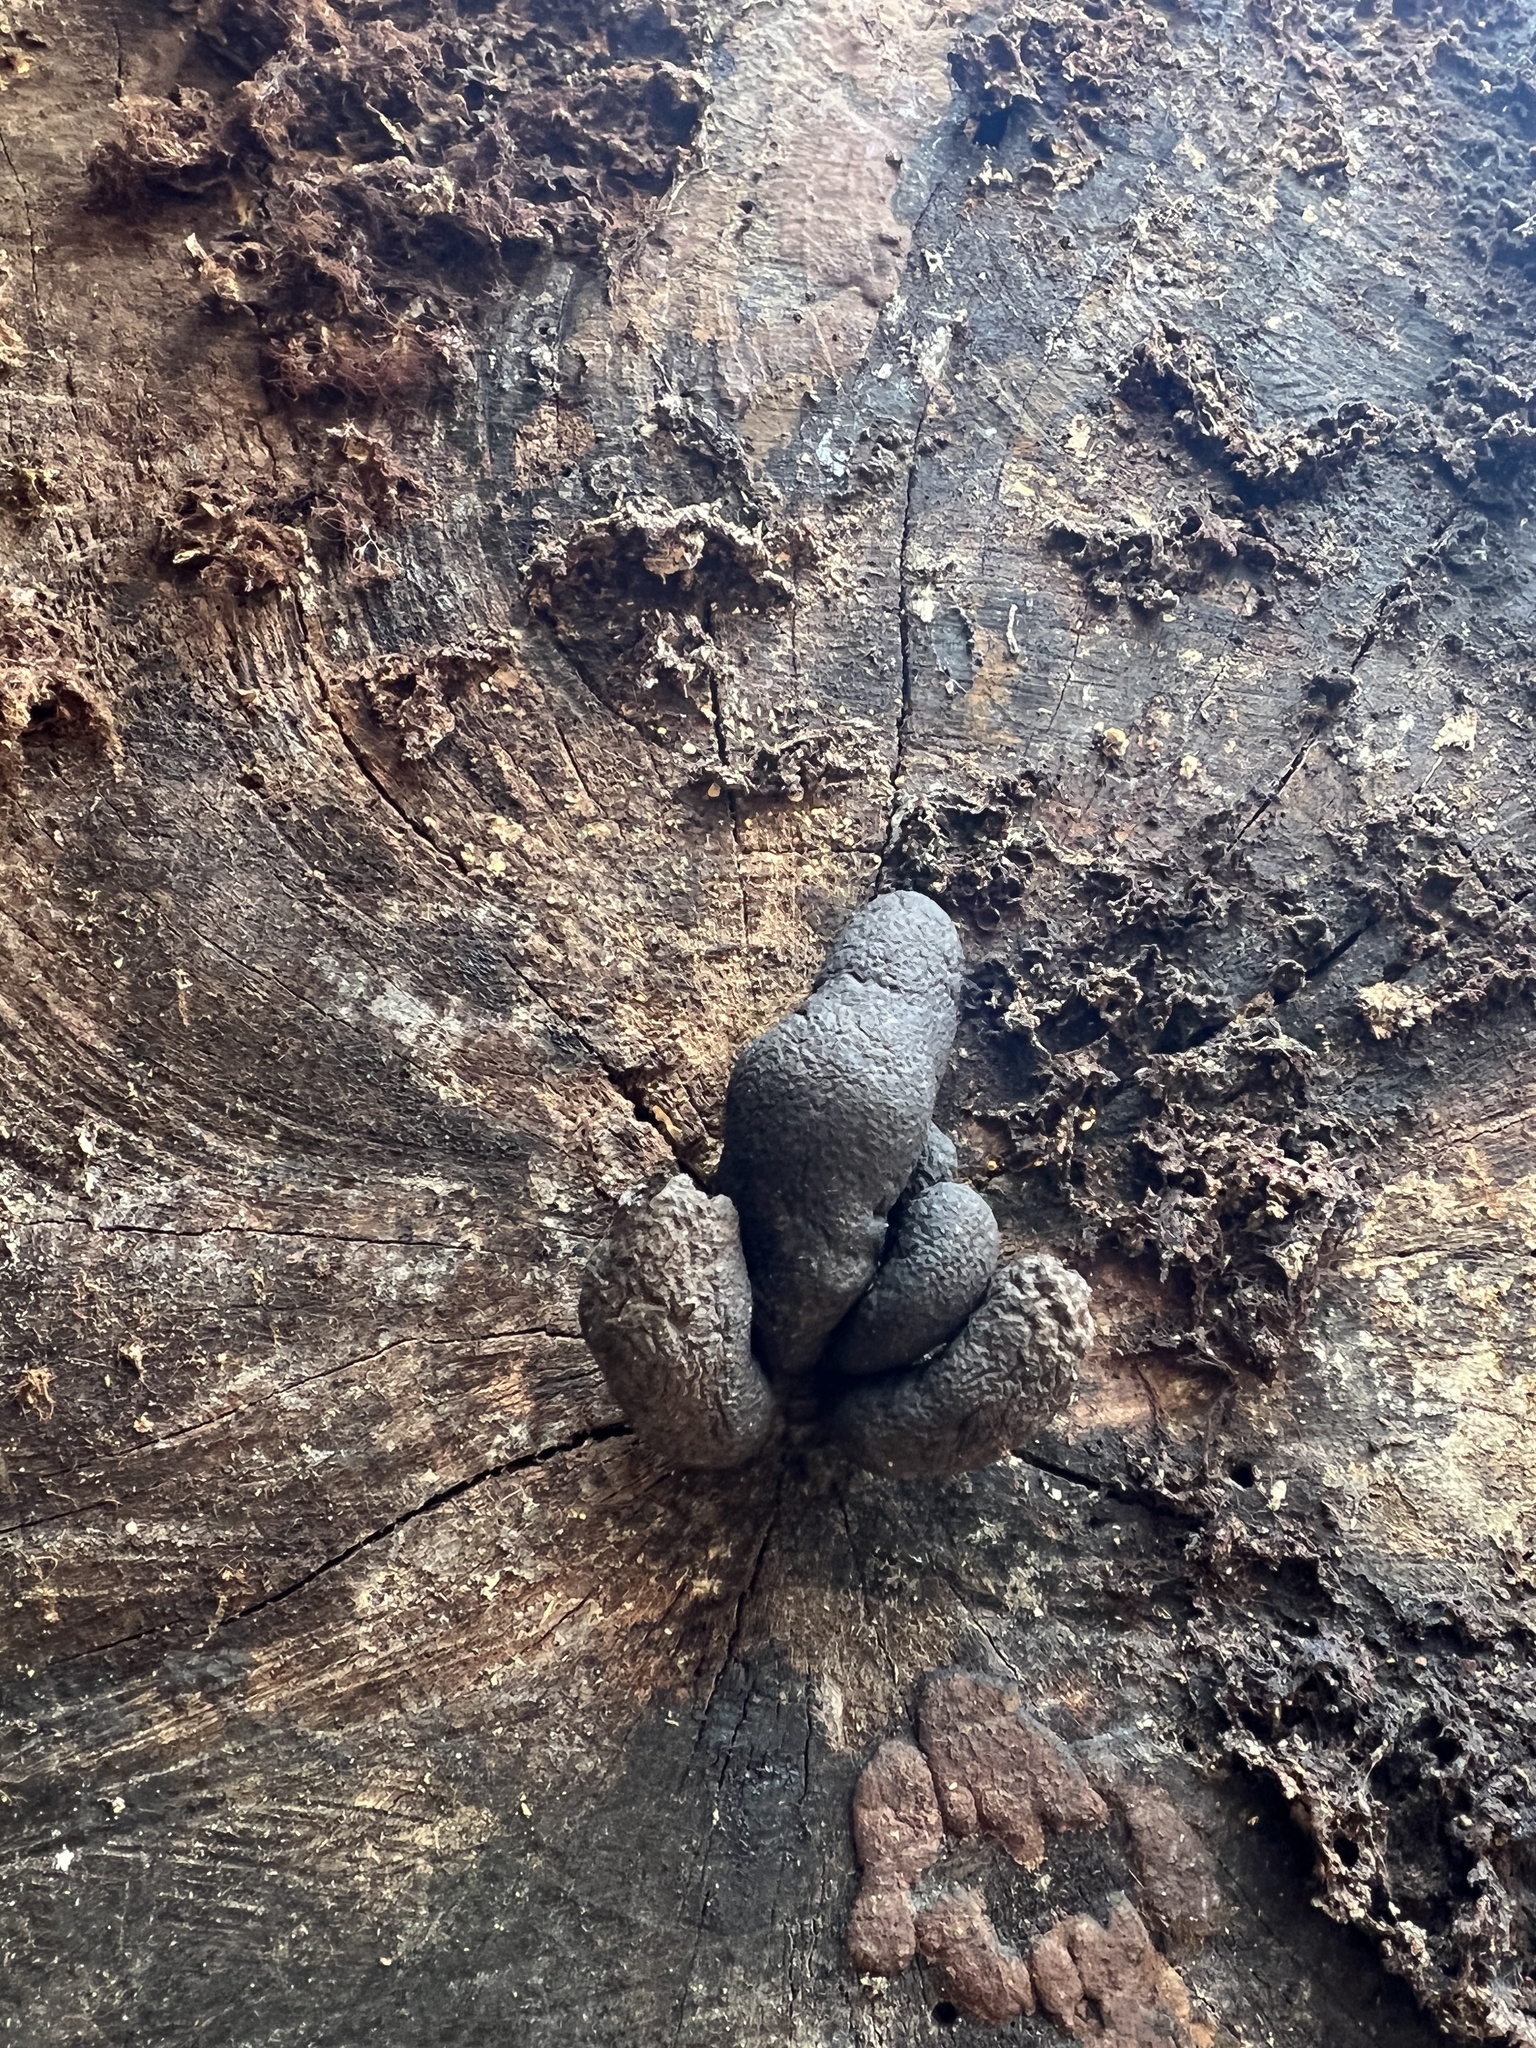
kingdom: Fungi
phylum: Ascomycota
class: Sordariomycetes
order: Xylariales
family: Xylariaceae
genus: Xylaria
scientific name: Xylaria polymorpha
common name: Dead man's fingers
